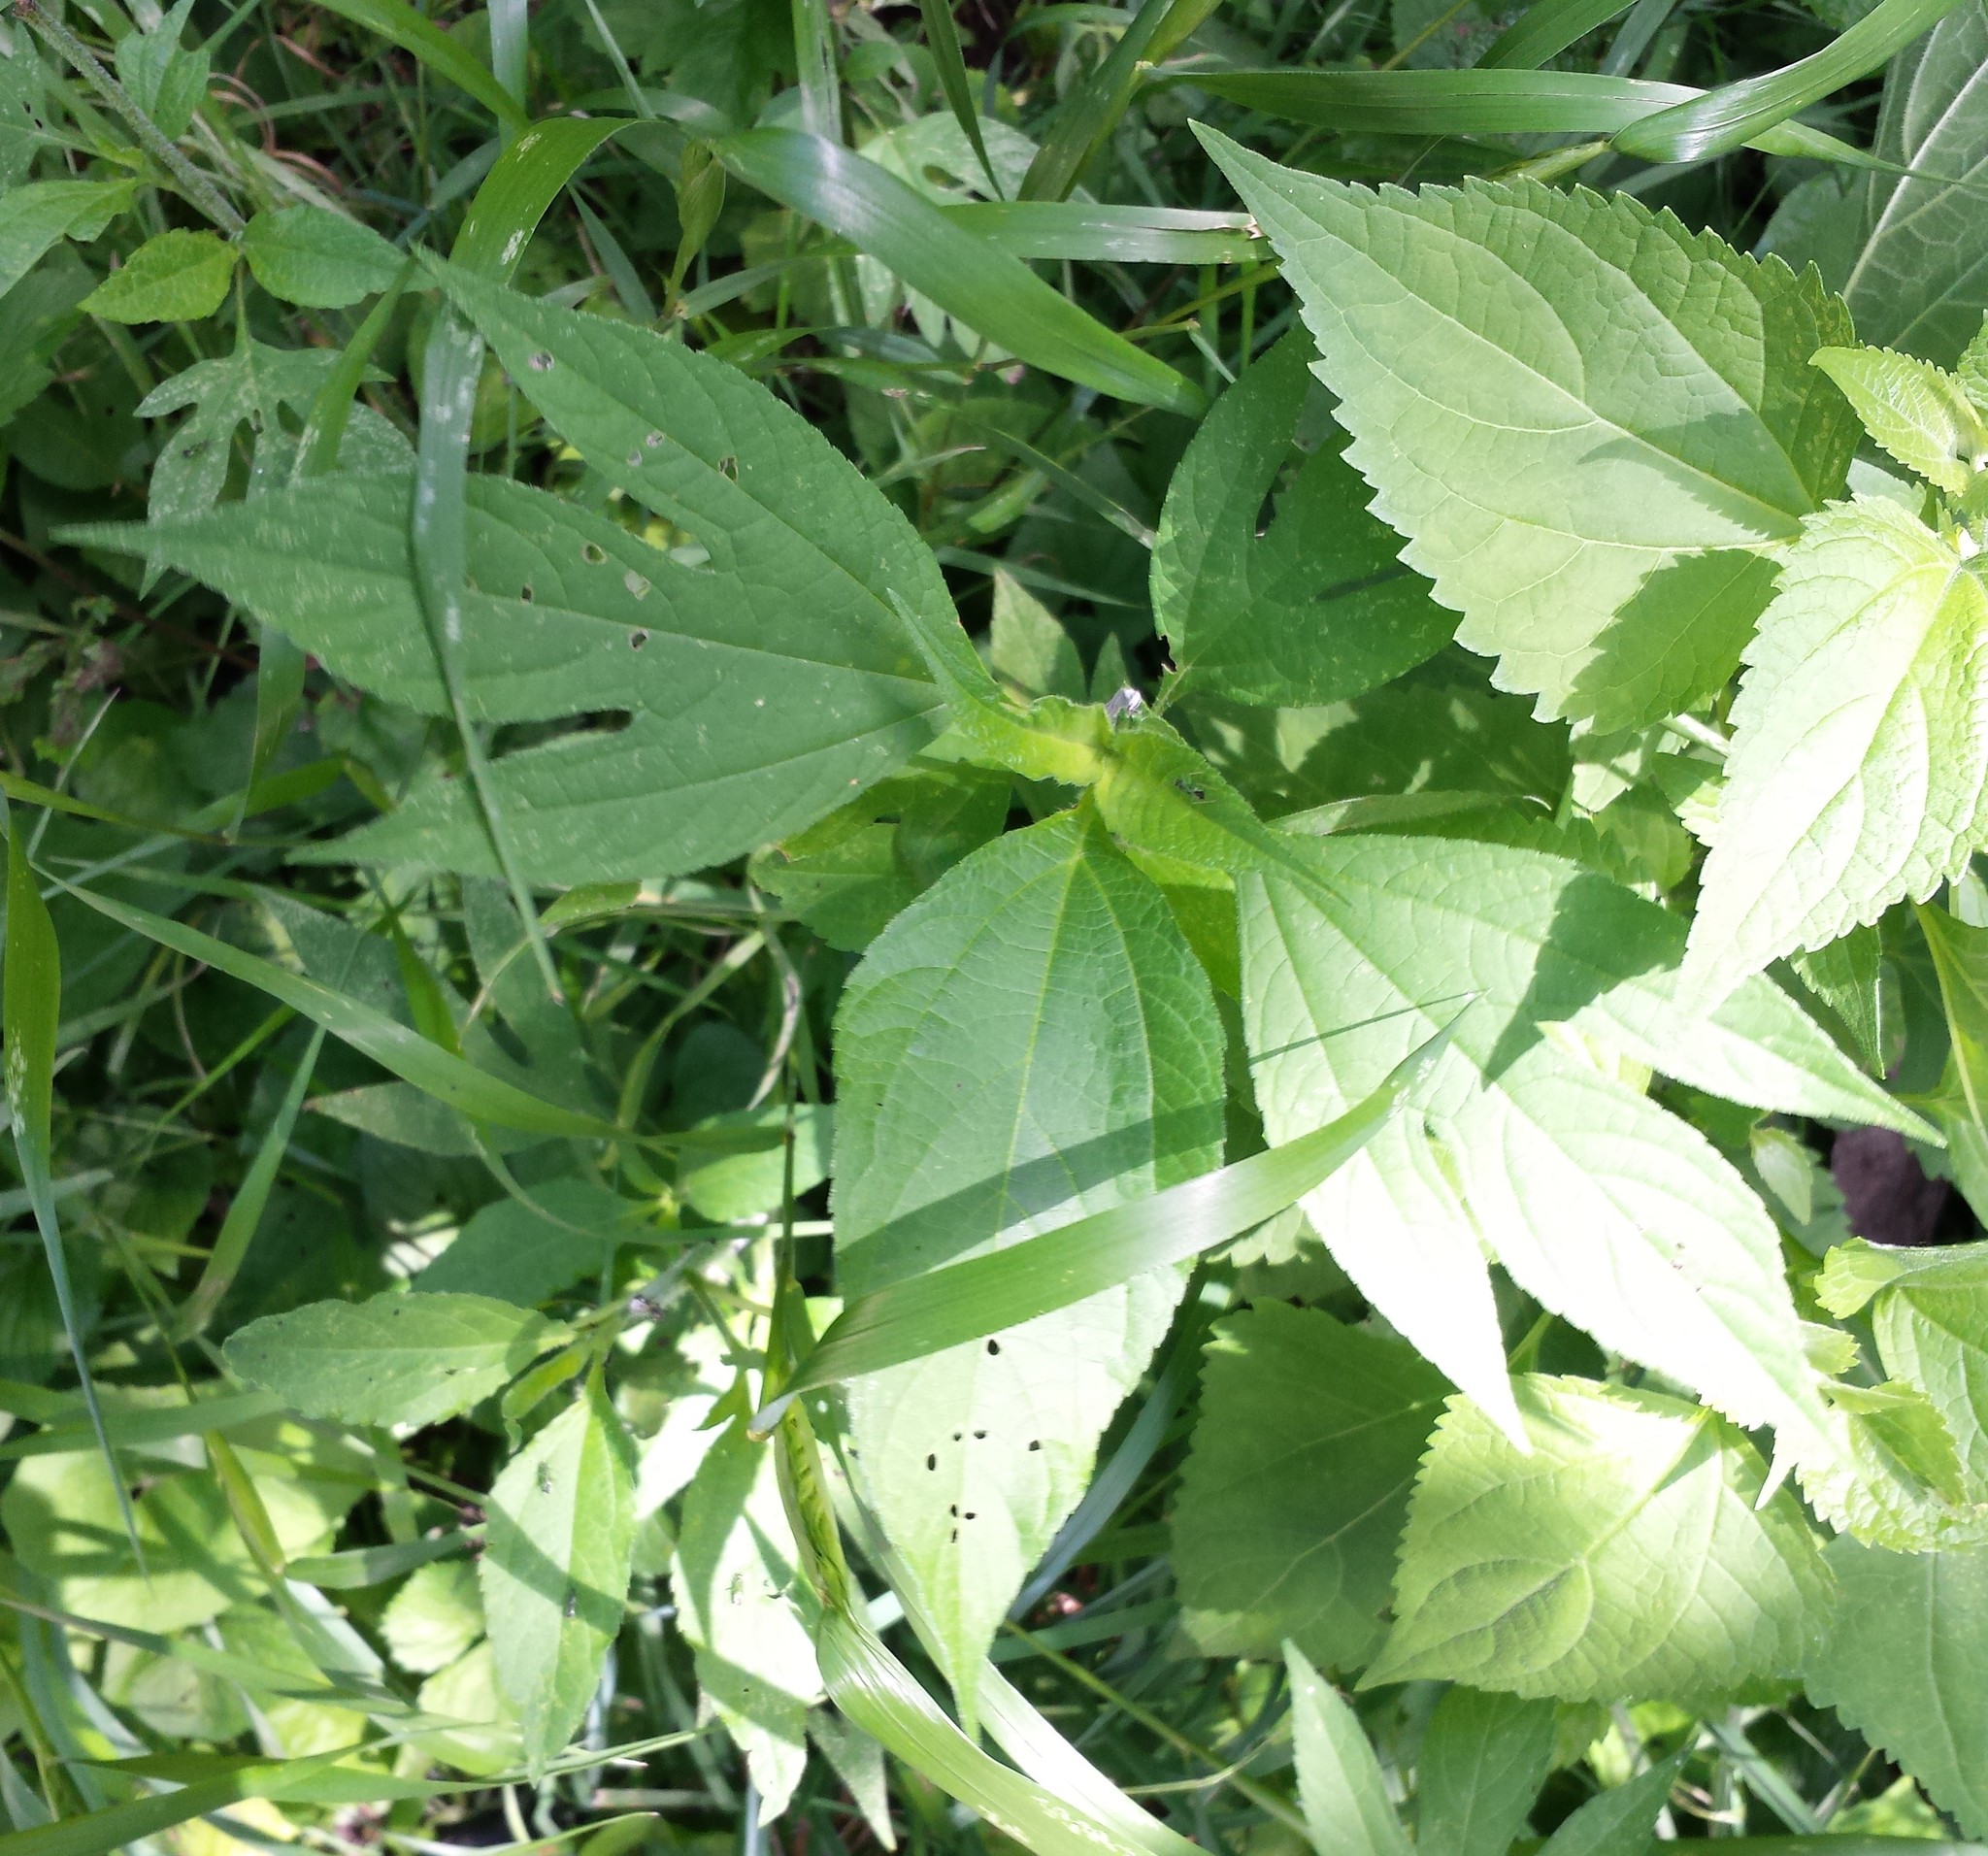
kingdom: Plantae
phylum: Tracheophyta
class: Magnoliopsida
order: Asterales
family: Asteraceae
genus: Ambrosia
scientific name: Ambrosia trifida
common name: Giant ragweed
